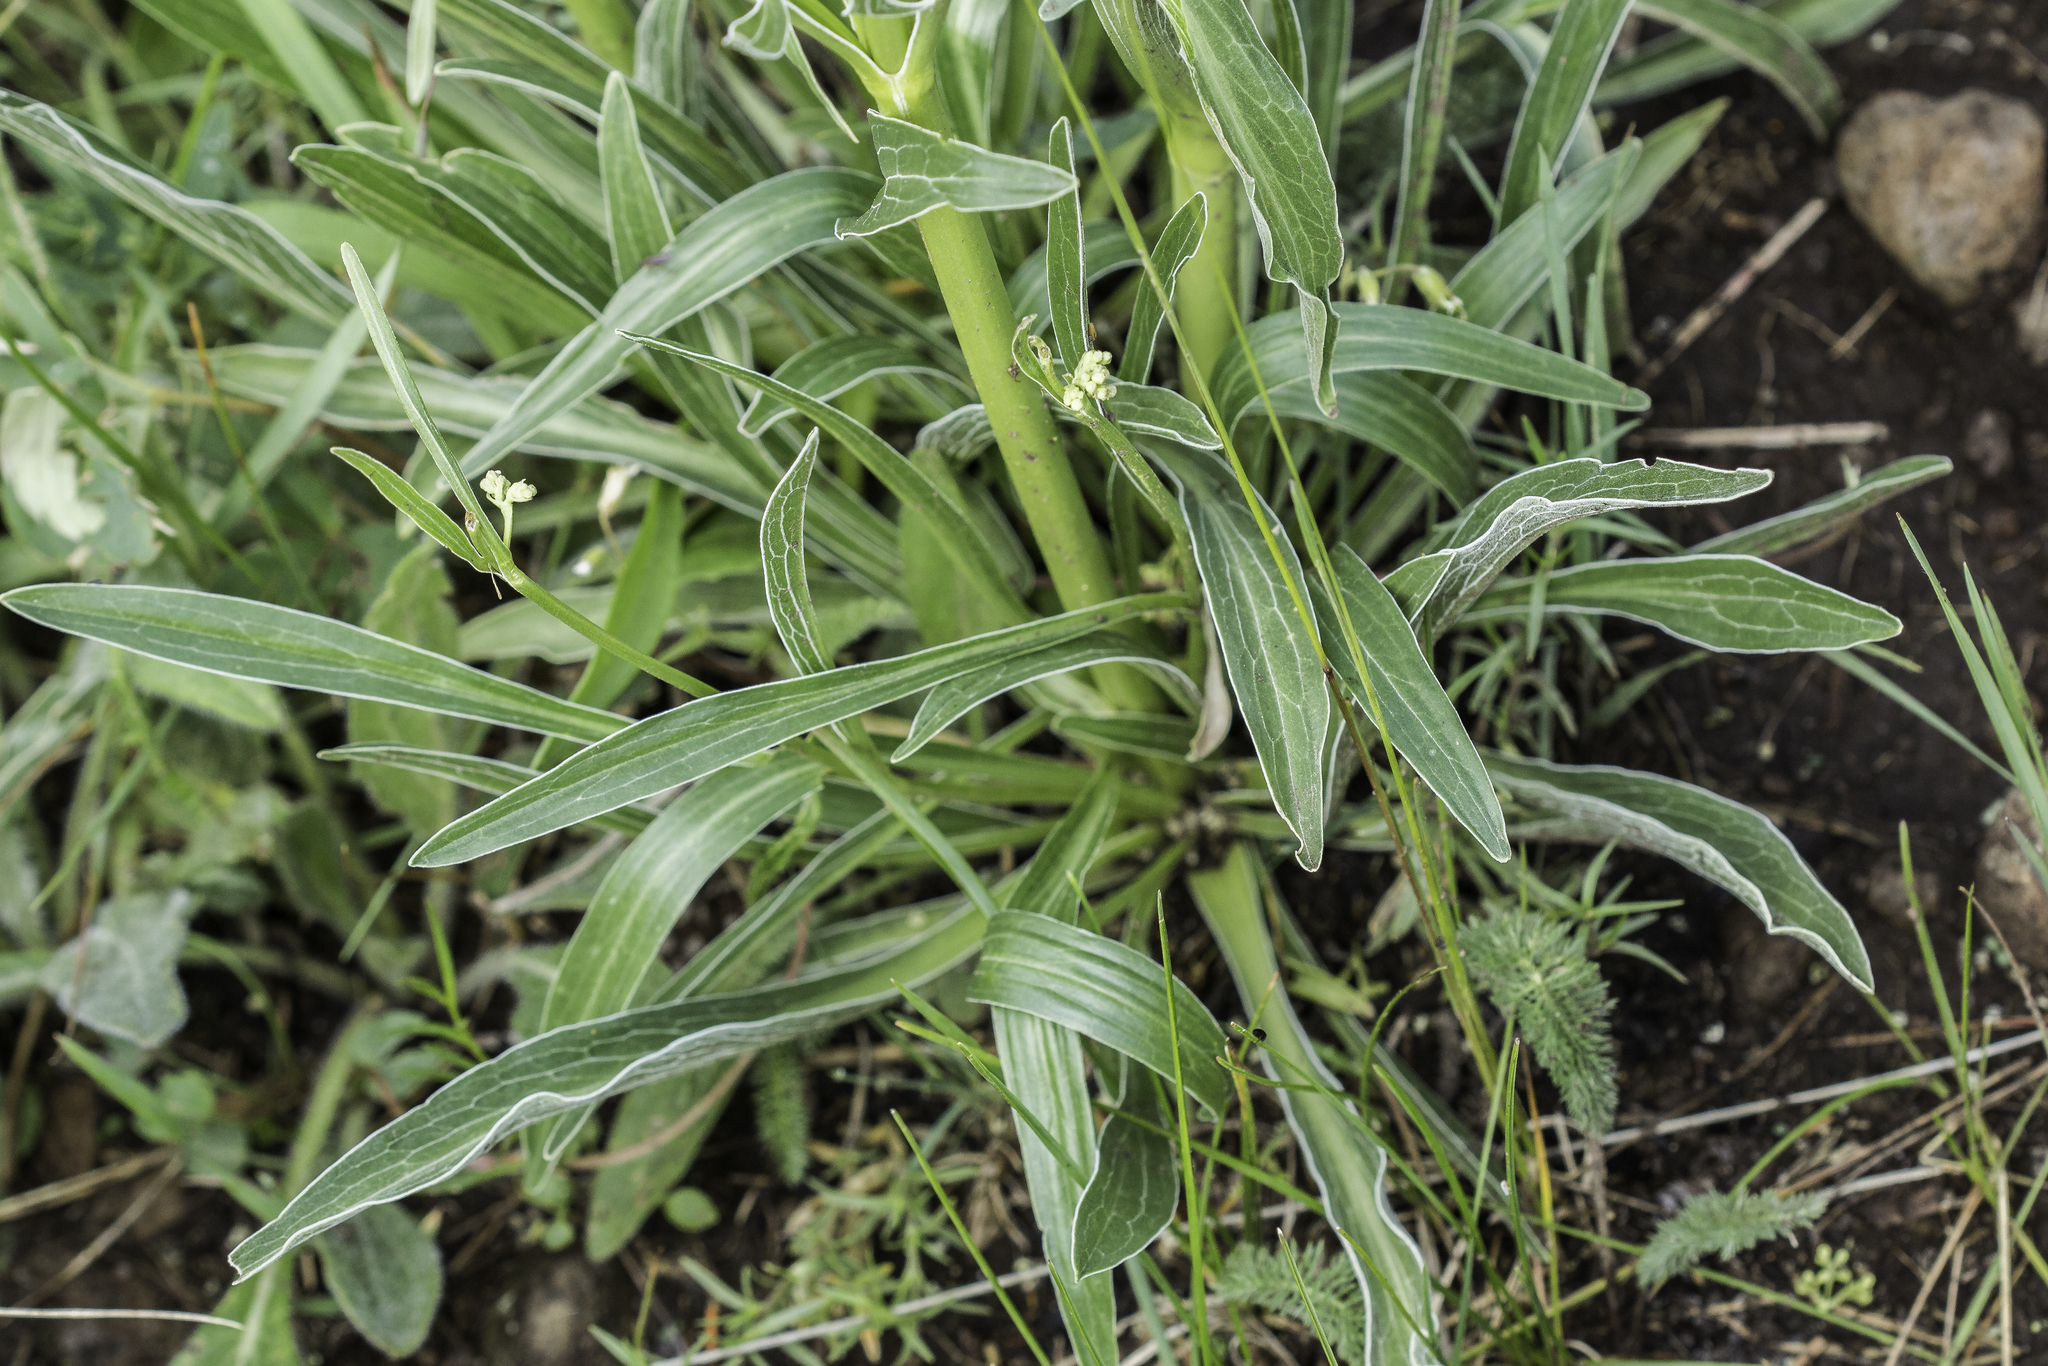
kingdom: Plantae
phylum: Tracheophyta
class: Magnoliopsida
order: Dipsacales
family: Caprifoliaceae
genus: Valeriana
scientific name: Valeriana edulis
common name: Taproot valerian
